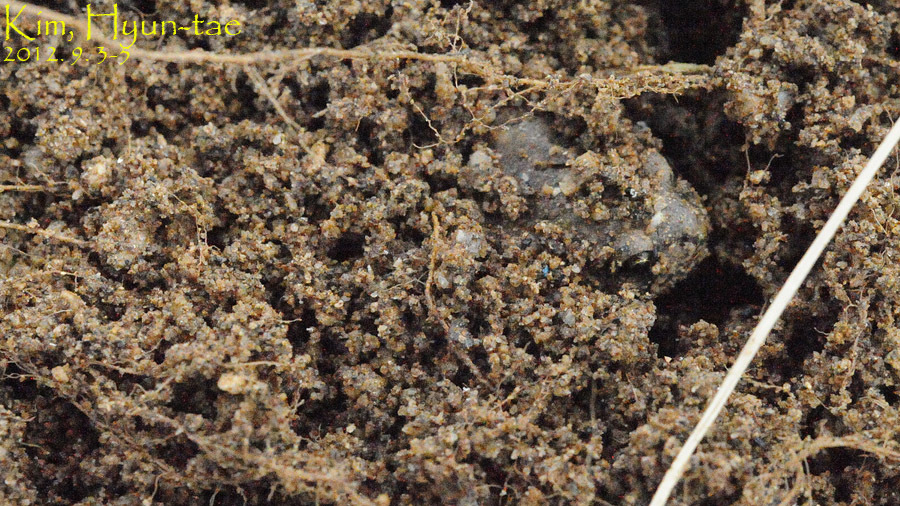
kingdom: Animalia
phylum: Chordata
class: Amphibia
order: Anura
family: Microhylidae
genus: Kaloula
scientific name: Kaloula borealis
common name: Boreal digging frog
